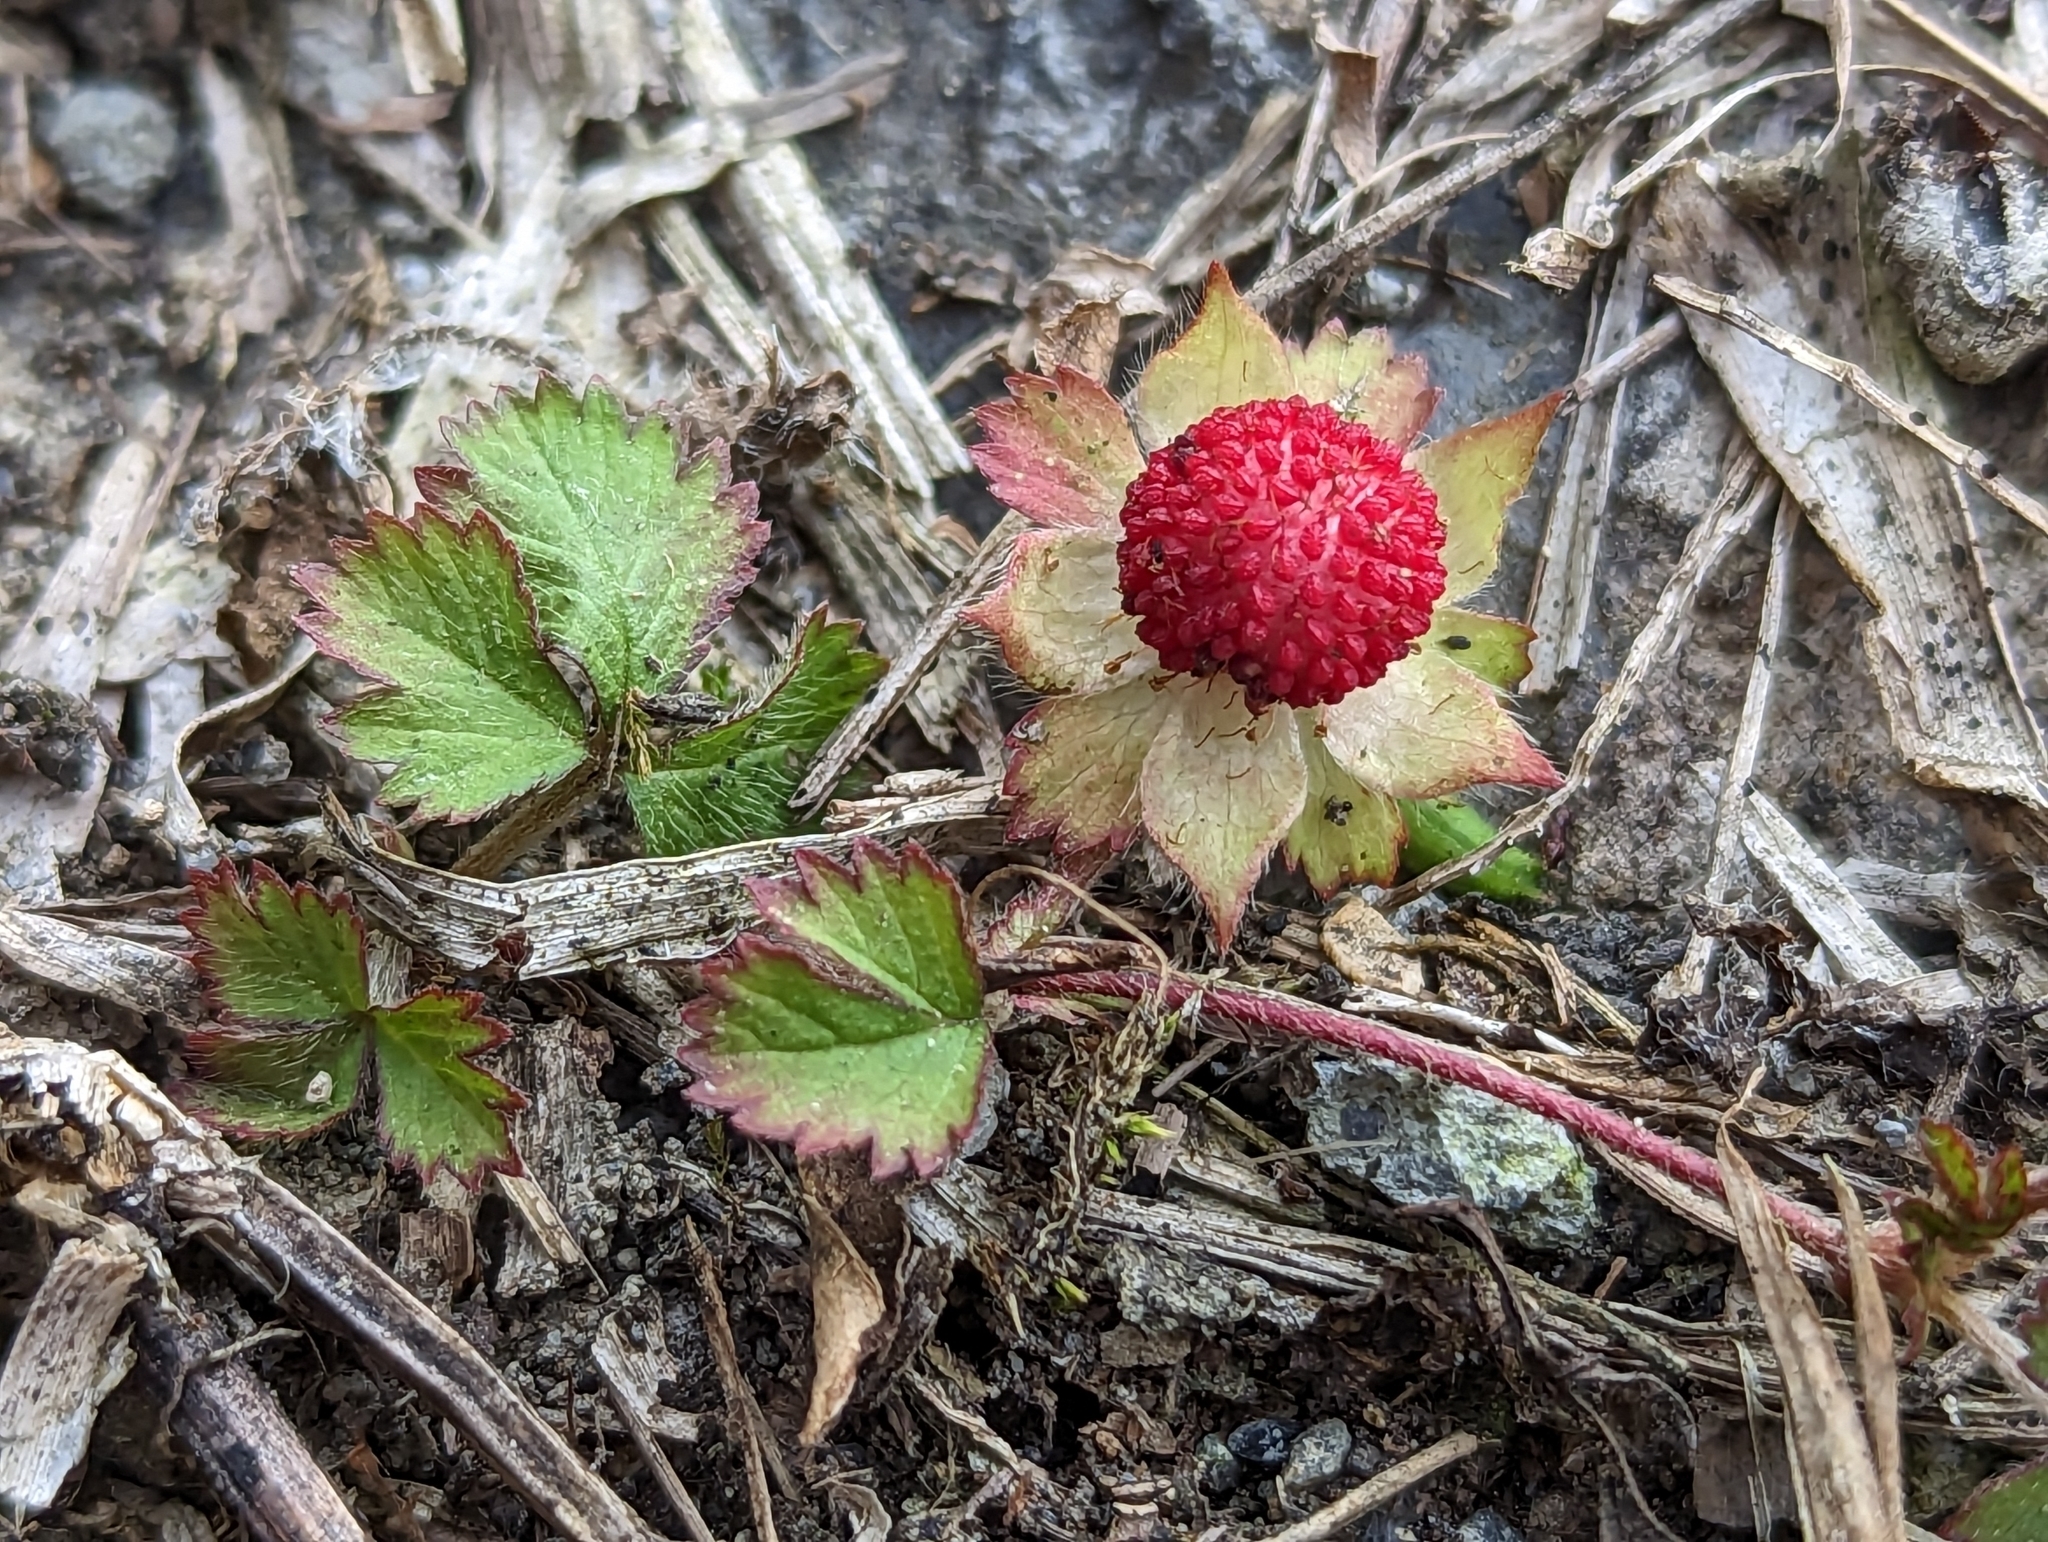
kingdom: Plantae
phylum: Tracheophyta
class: Magnoliopsida
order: Rosales
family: Rosaceae
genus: Potentilla
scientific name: Potentilla wallichiana
